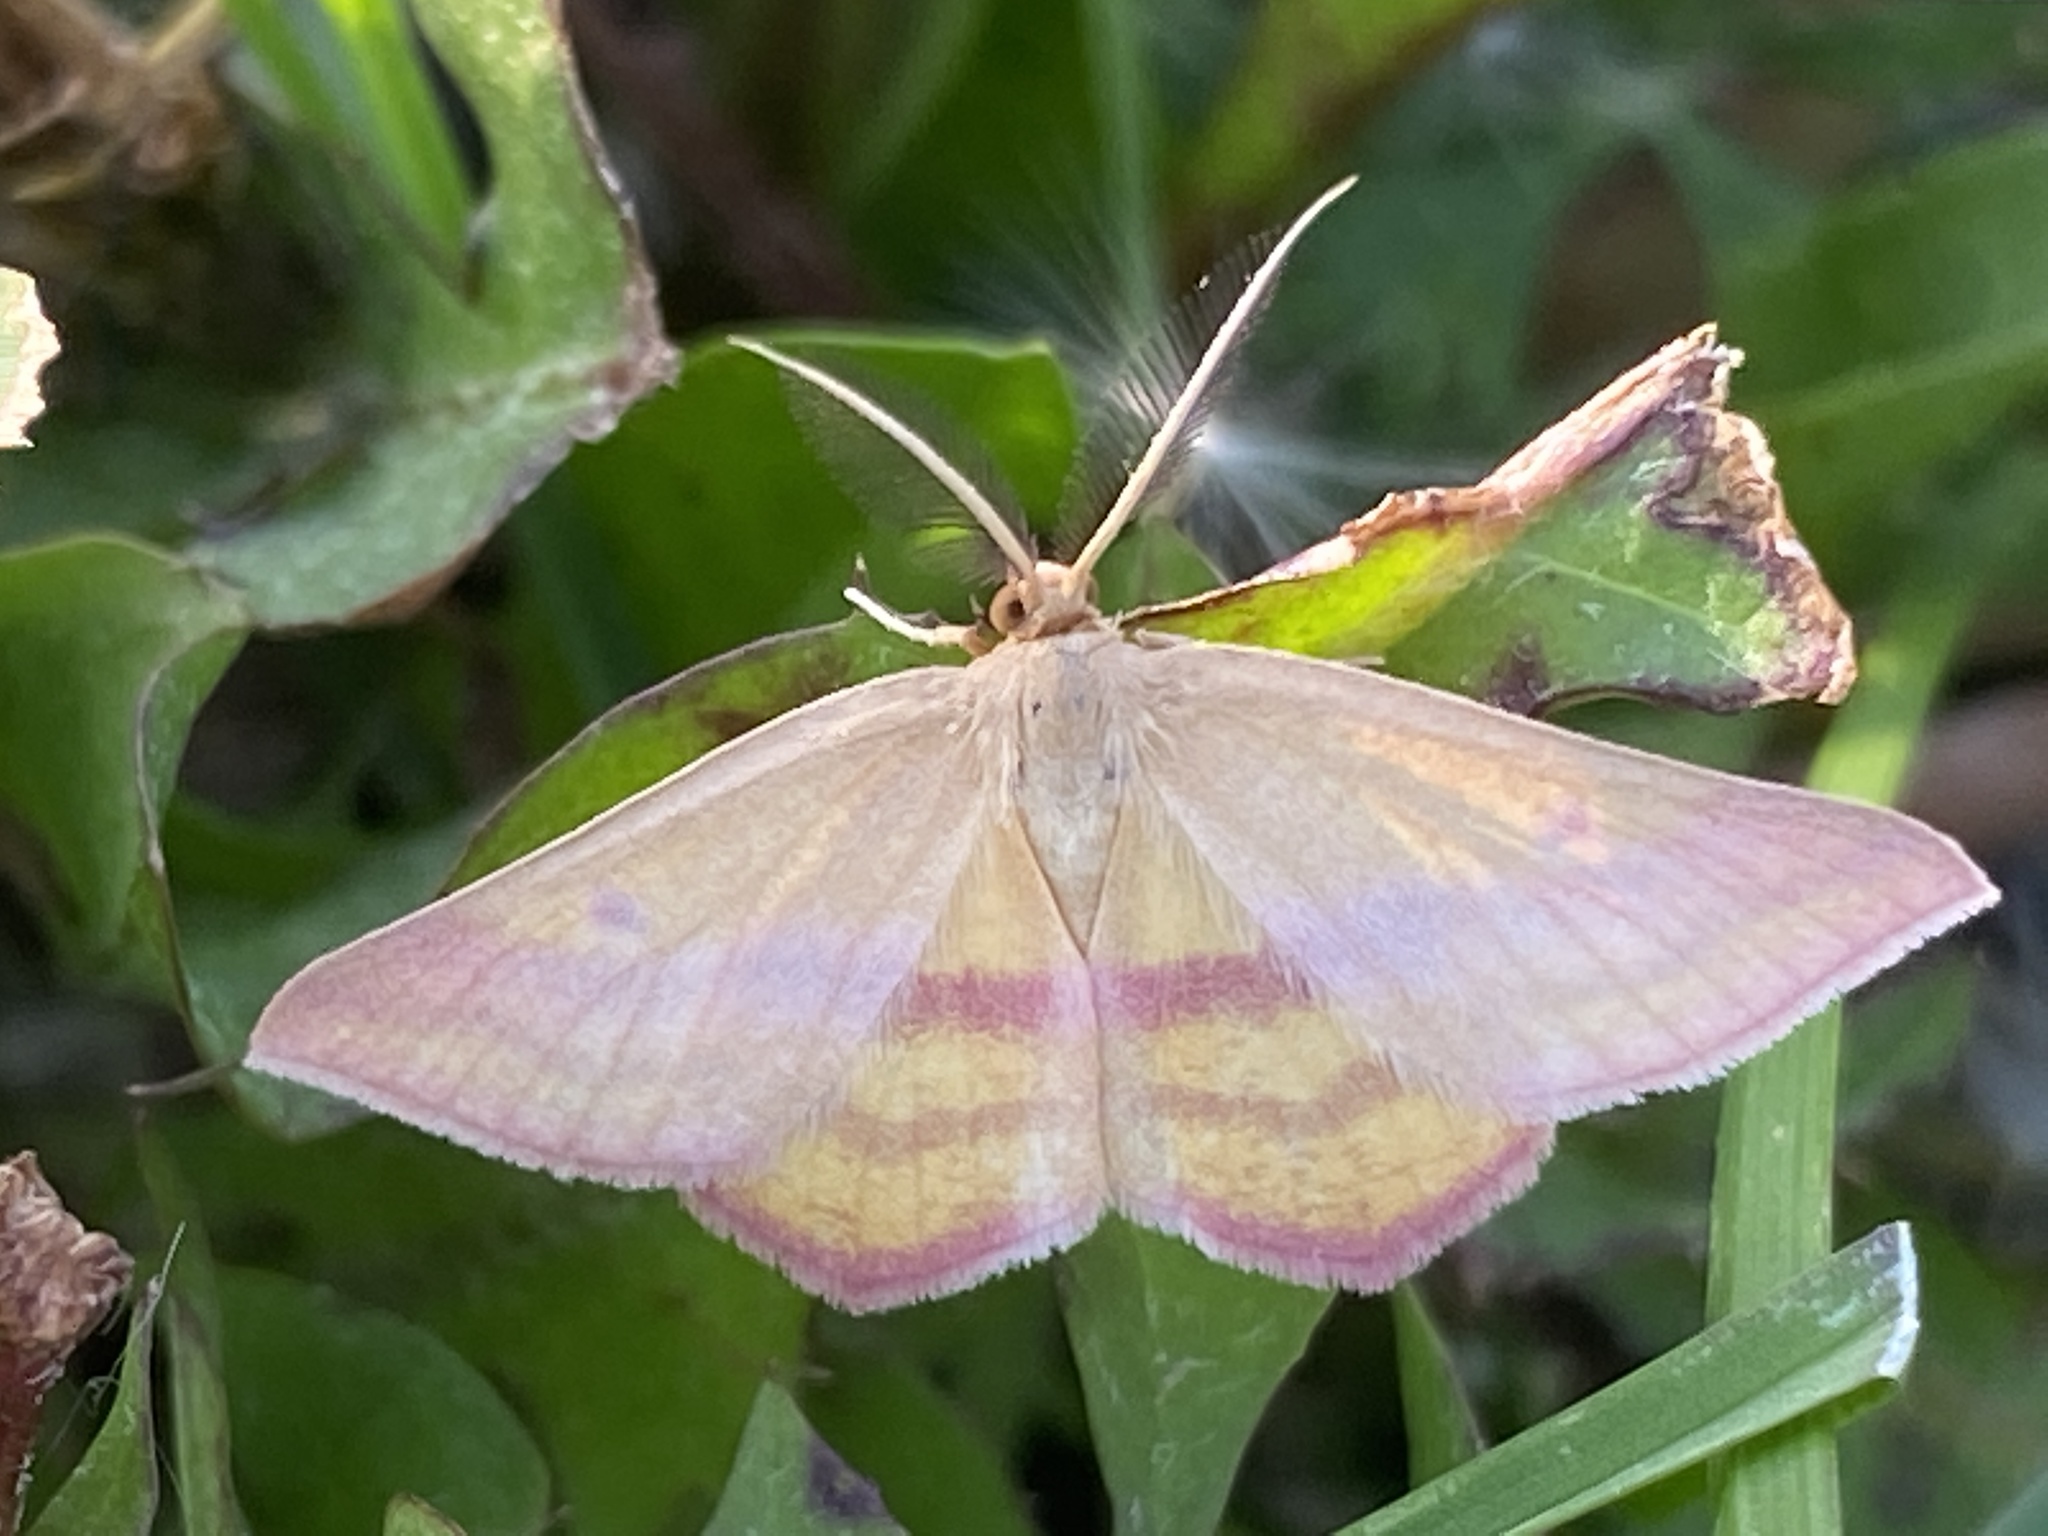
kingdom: Animalia
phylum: Arthropoda
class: Insecta
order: Lepidoptera
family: Geometridae
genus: Haematopis
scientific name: Haematopis grataria
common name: Chickweed geometer
